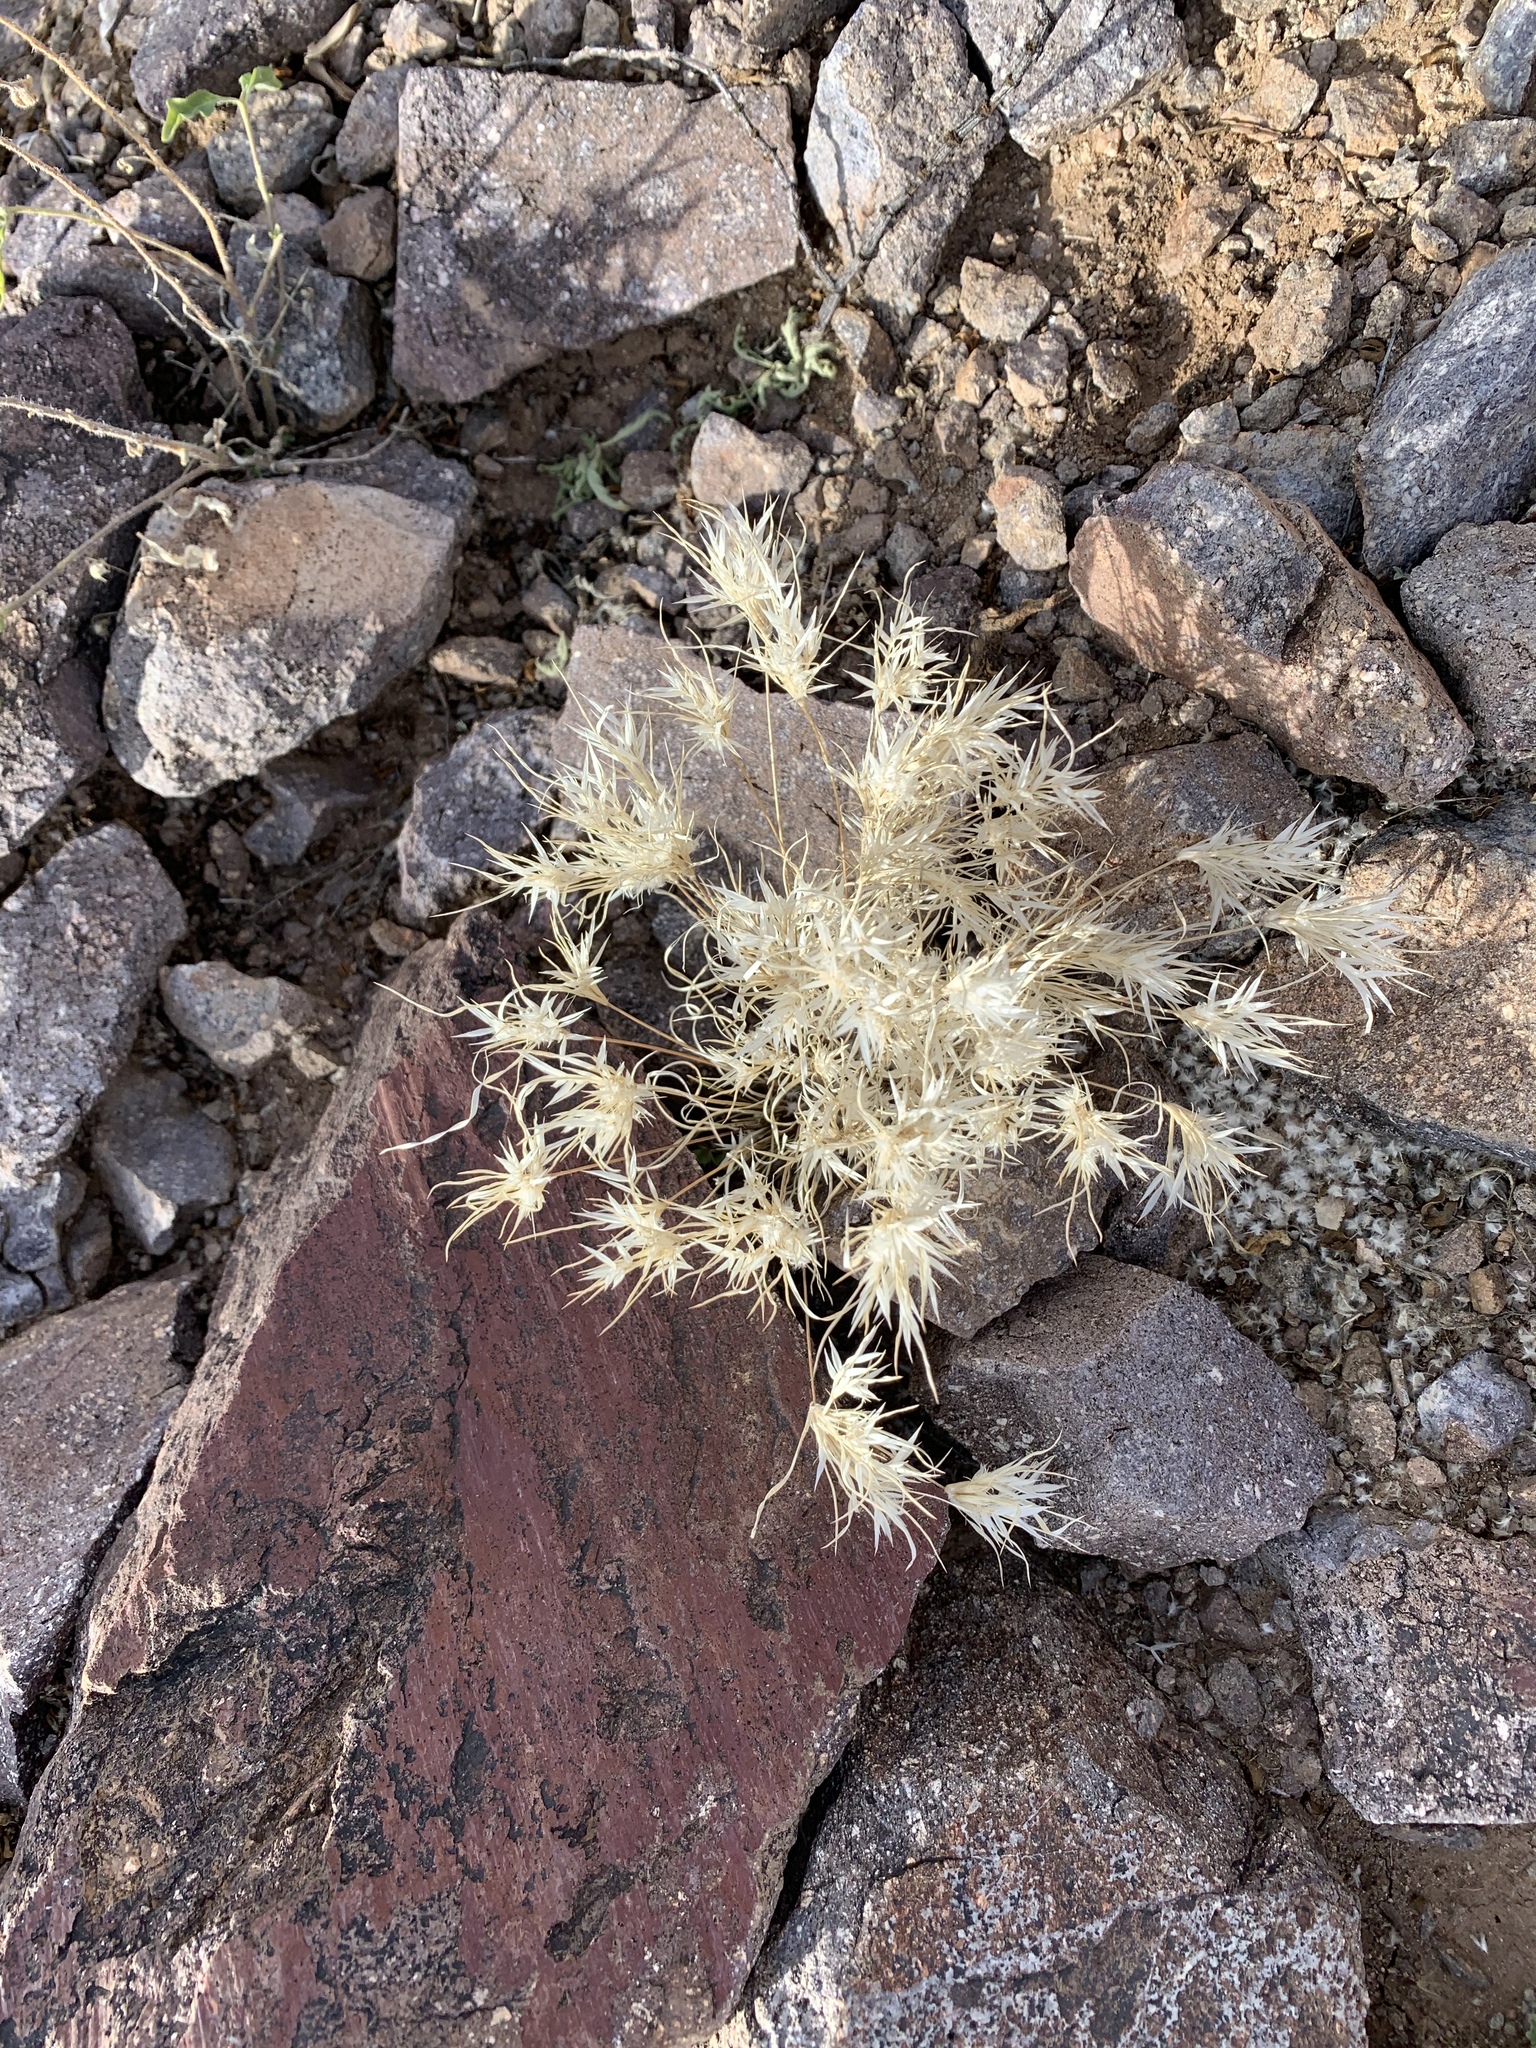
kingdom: Plantae
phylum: Tracheophyta
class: Liliopsida
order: Poales
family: Poaceae
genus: Dasyochloa
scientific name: Dasyochloa pulchella
